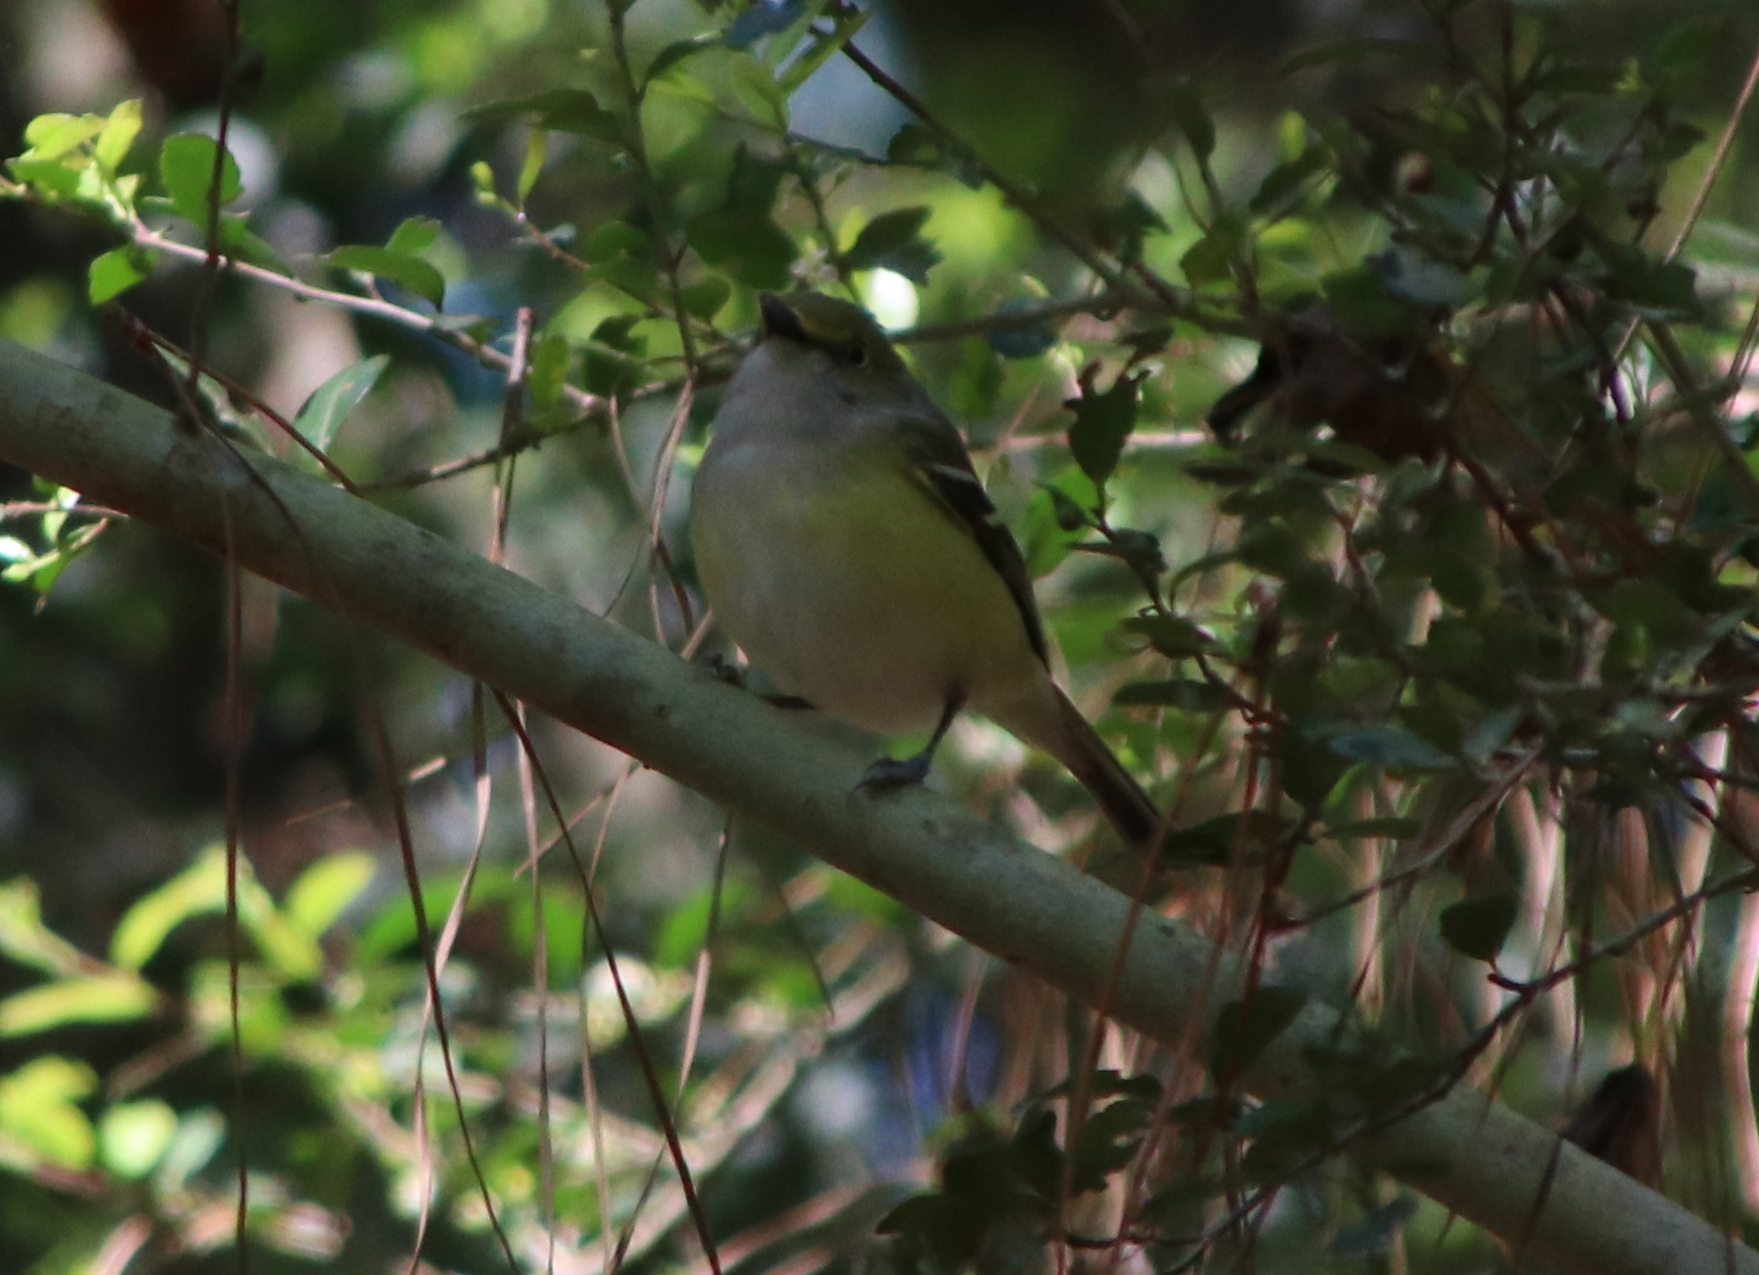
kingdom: Animalia
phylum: Chordata
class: Aves
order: Passeriformes
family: Vireonidae
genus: Vireo
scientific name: Vireo griseus
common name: White-eyed vireo
